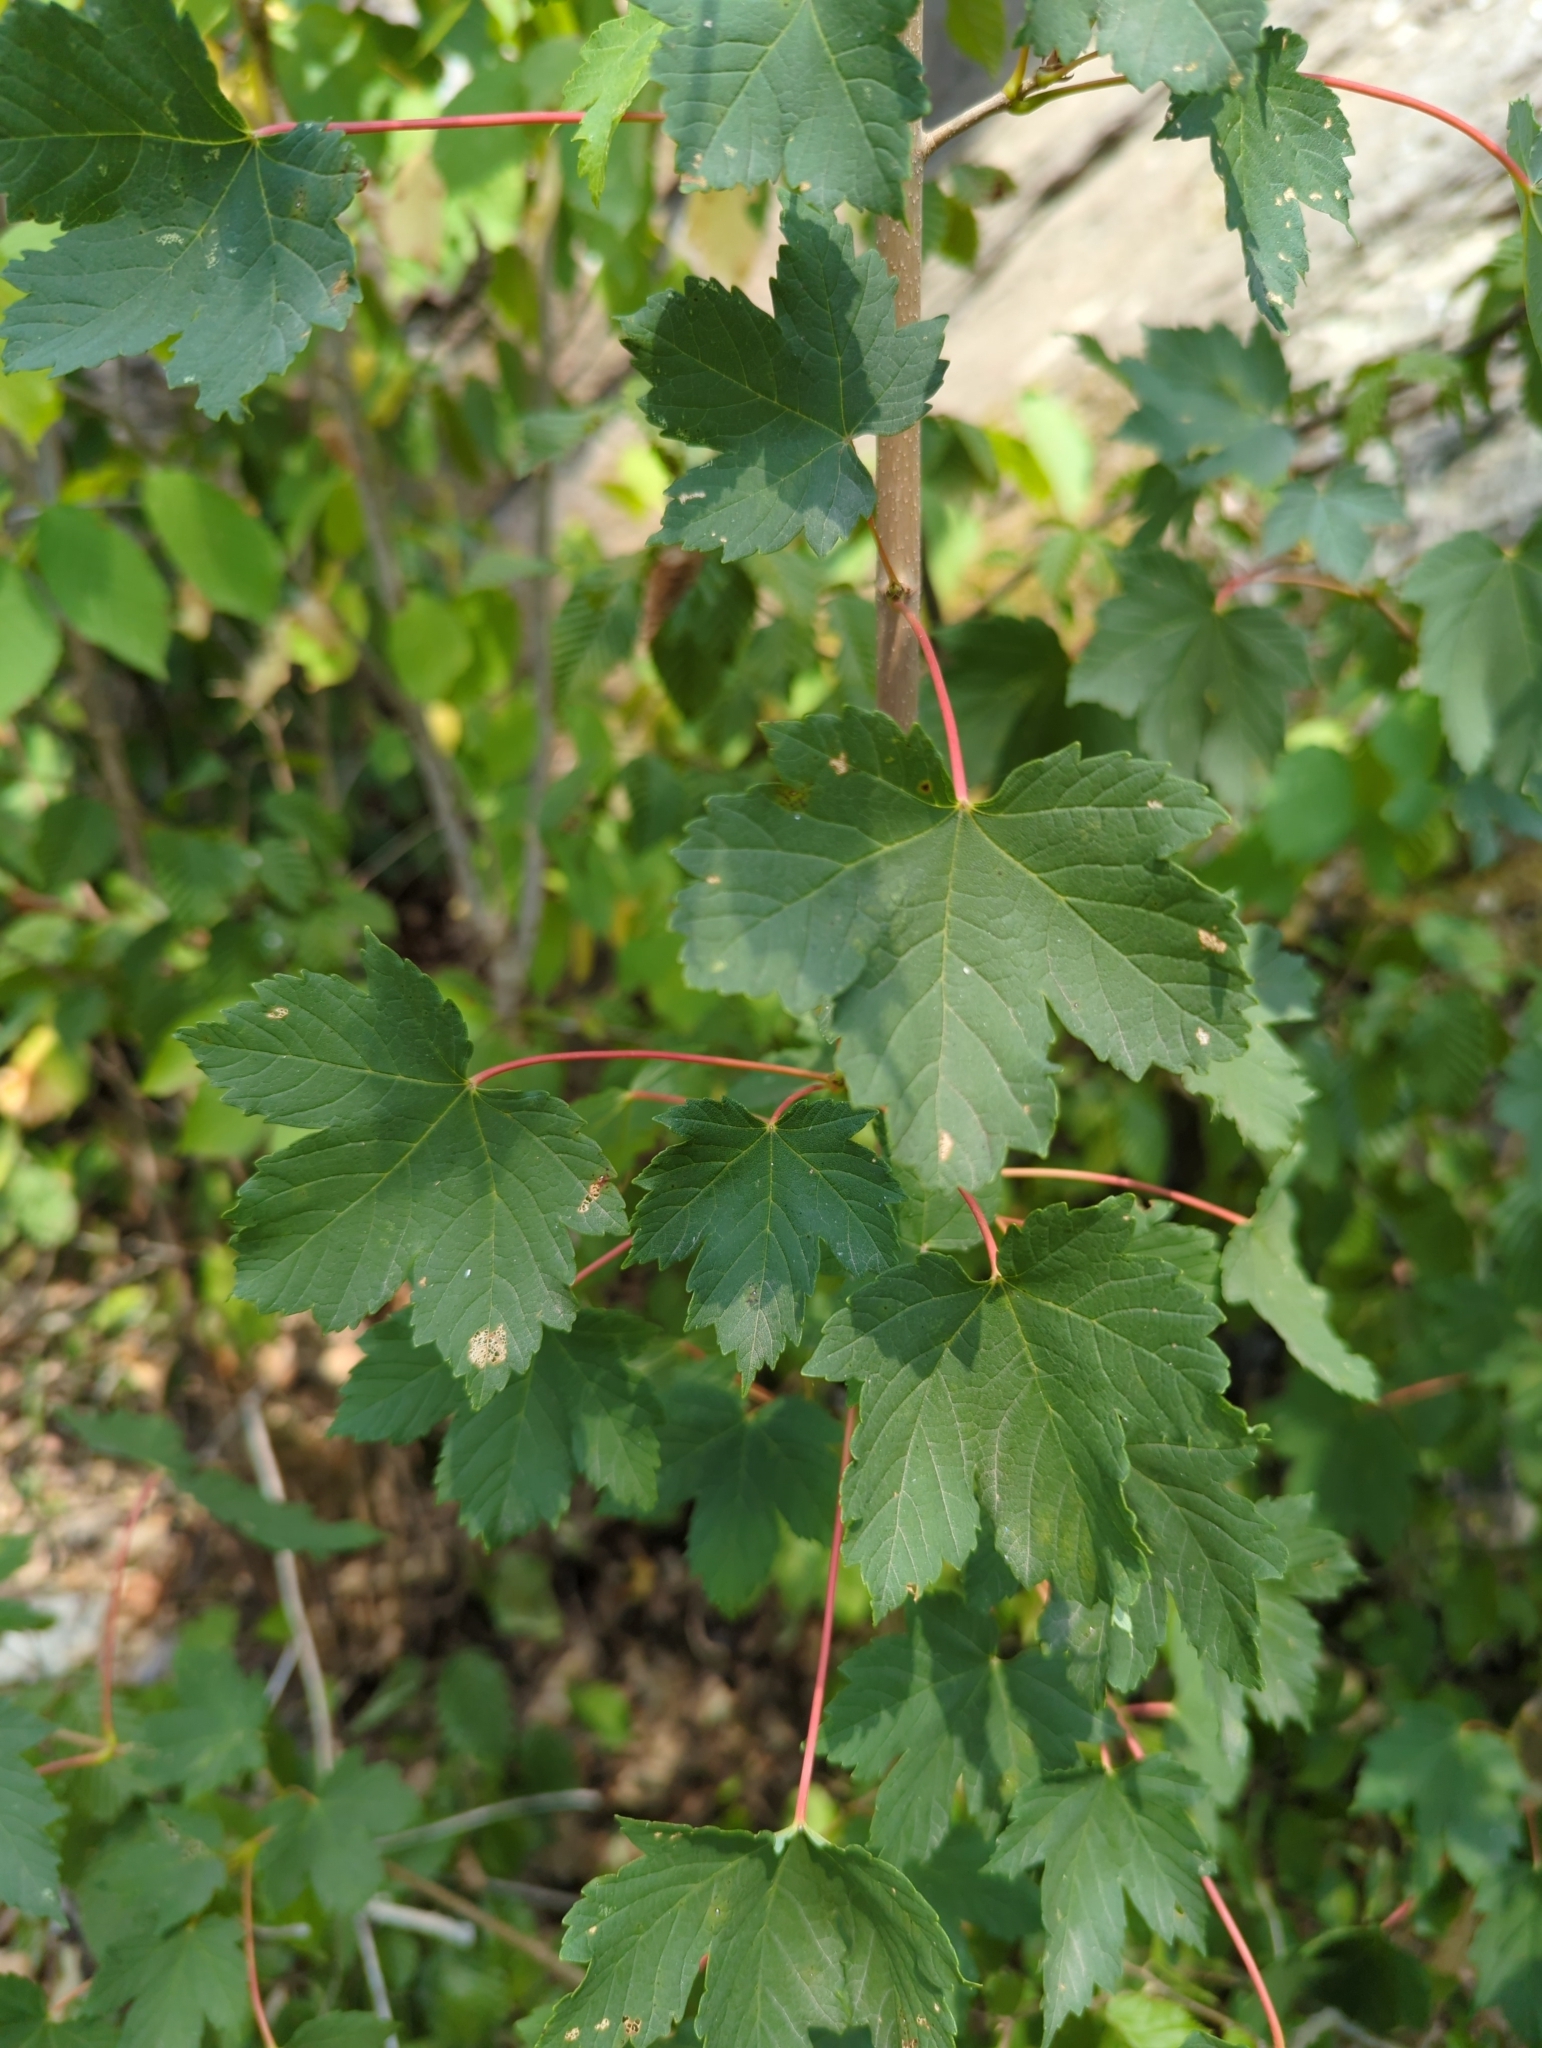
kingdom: Plantae
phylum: Tracheophyta
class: Magnoliopsida
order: Sapindales
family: Sapindaceae
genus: Acer
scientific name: Acer pseudoplatanus
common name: Sycamore
